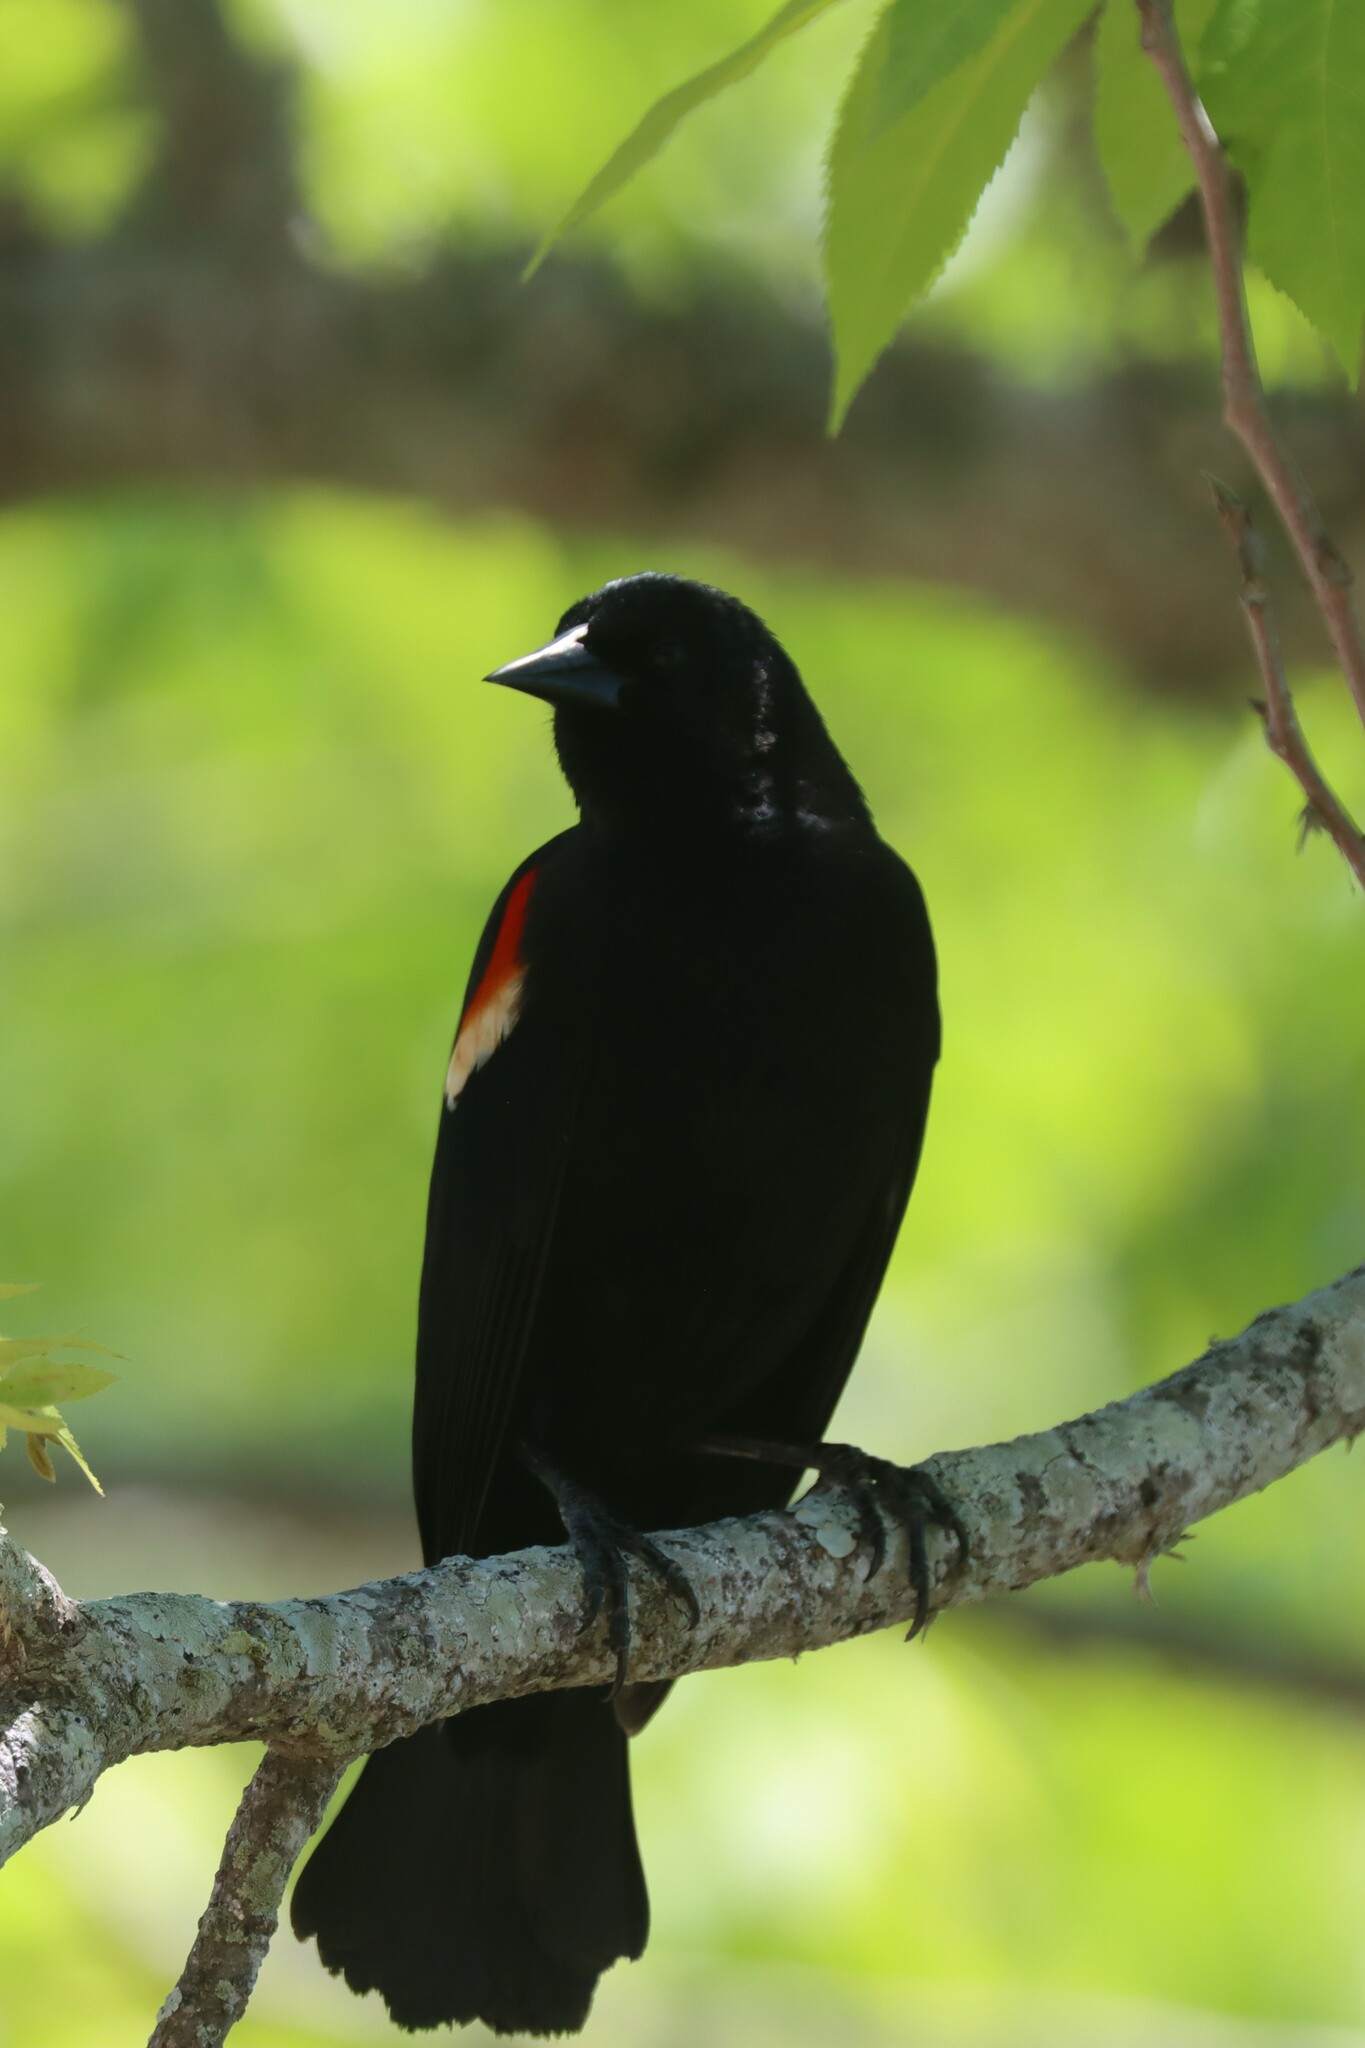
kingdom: Animalia
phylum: Chordata
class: Aves
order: Passeriformes
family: Icteridae
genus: Agelaius
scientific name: Agelaius phoeniceus
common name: Red-winged blackbird
